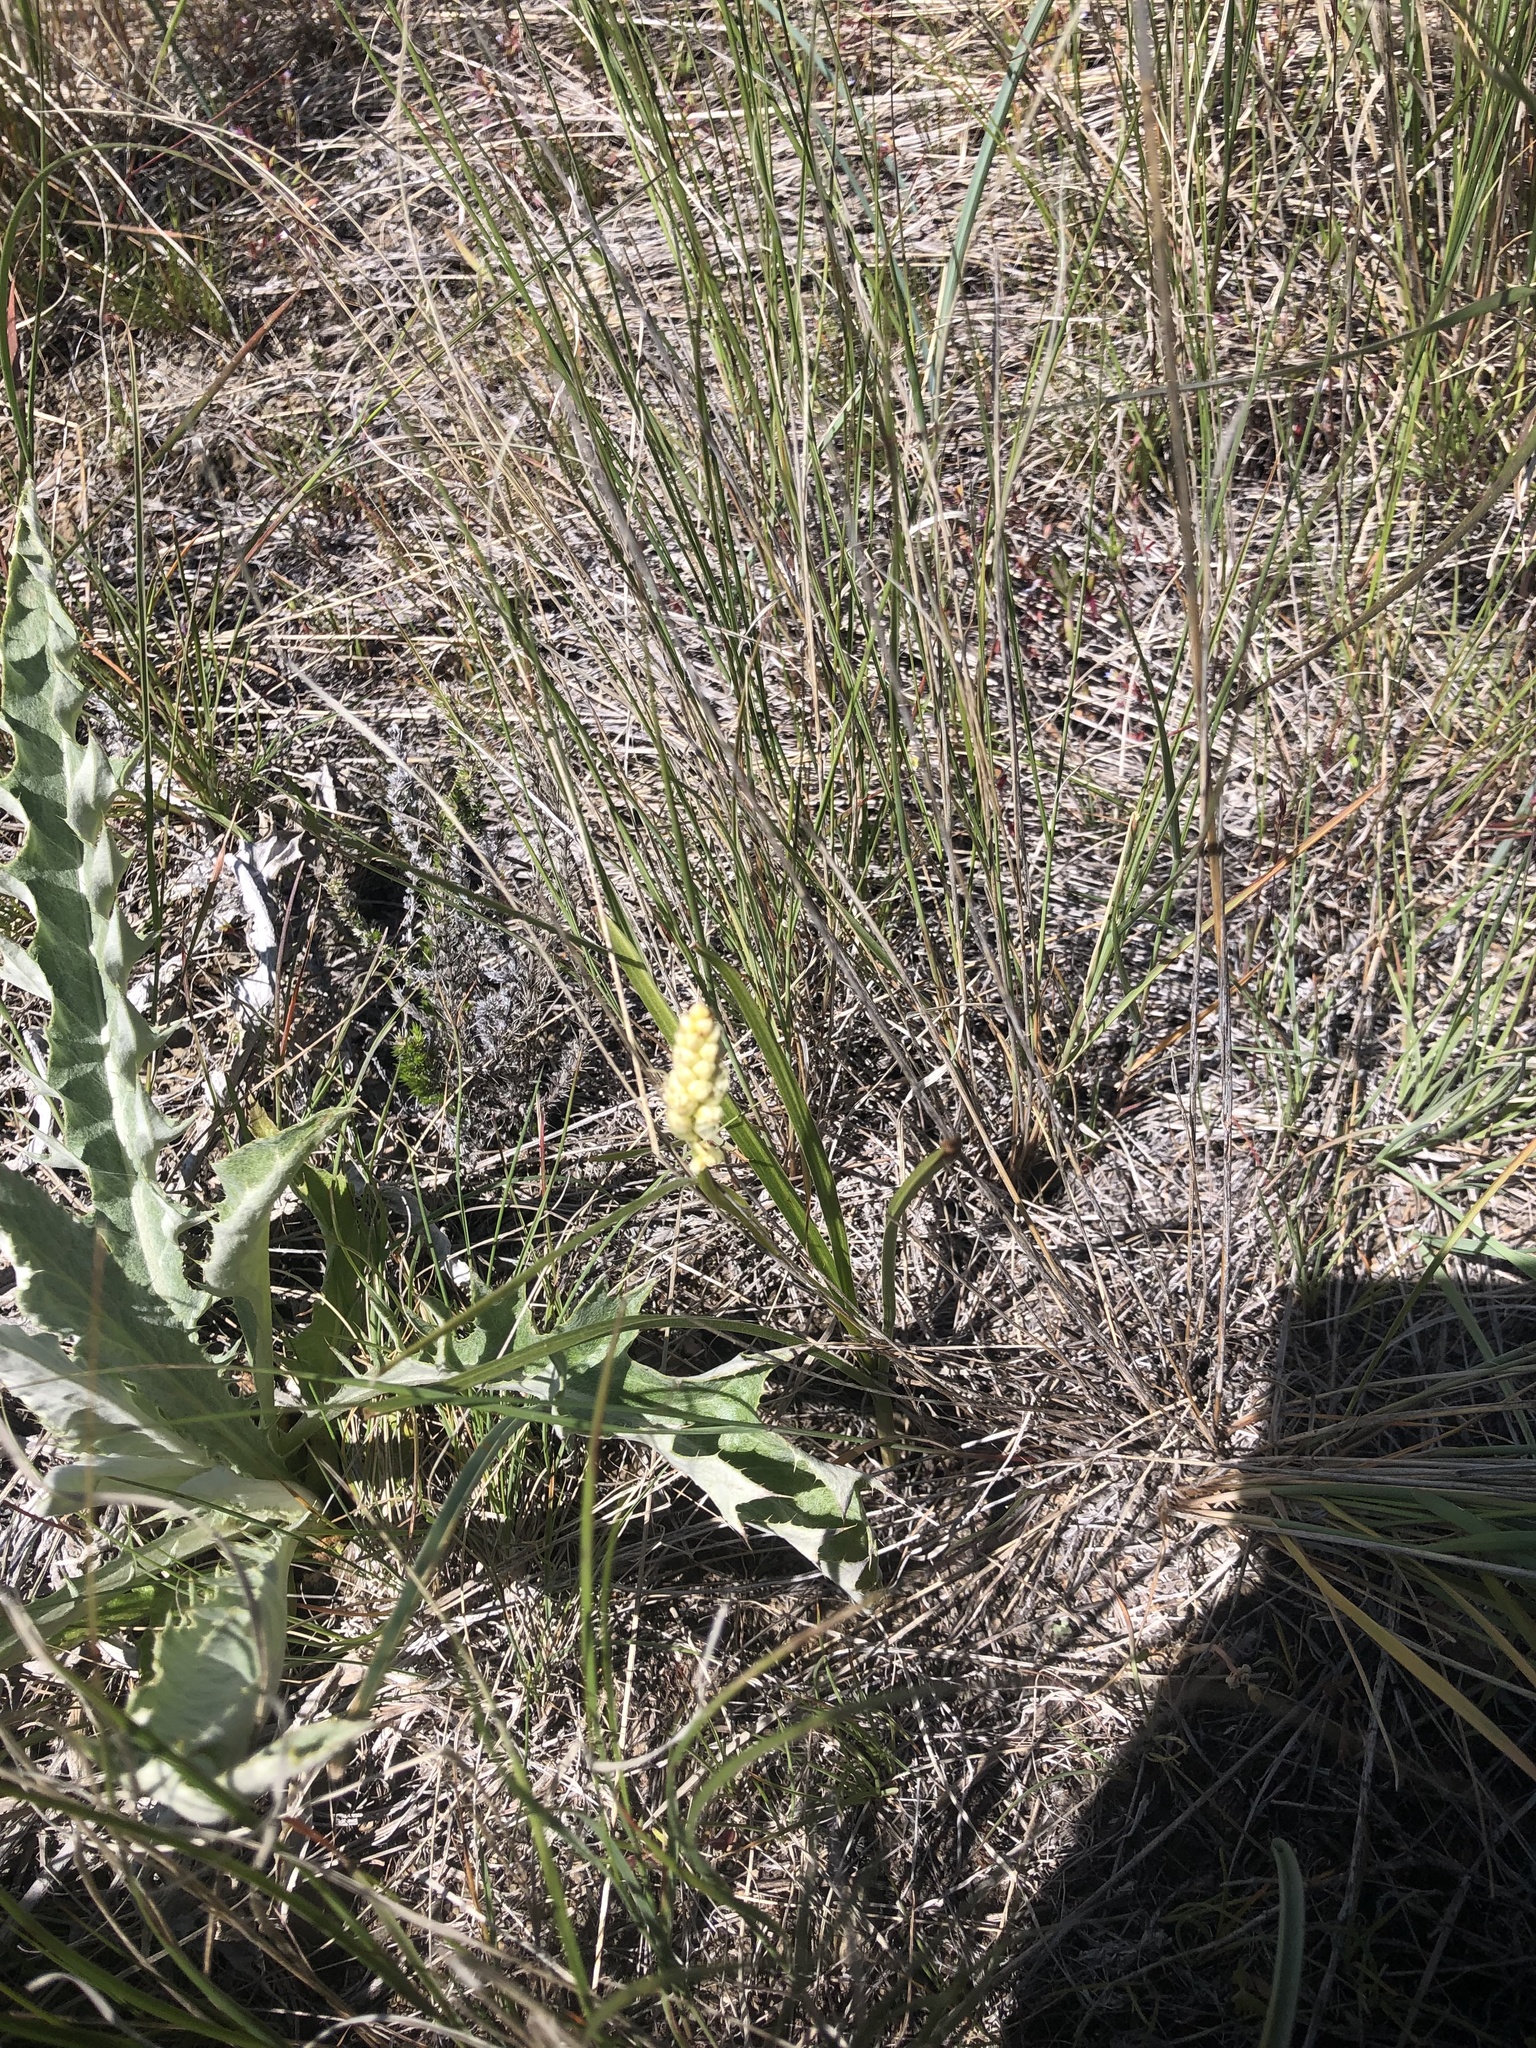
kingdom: Plantae
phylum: Tracheophyta
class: Liliopsida
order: Liliales
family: Melanthiaceae
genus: Toxicoscordion
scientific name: Toxicoscordion venenosum
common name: Meadow death camas
